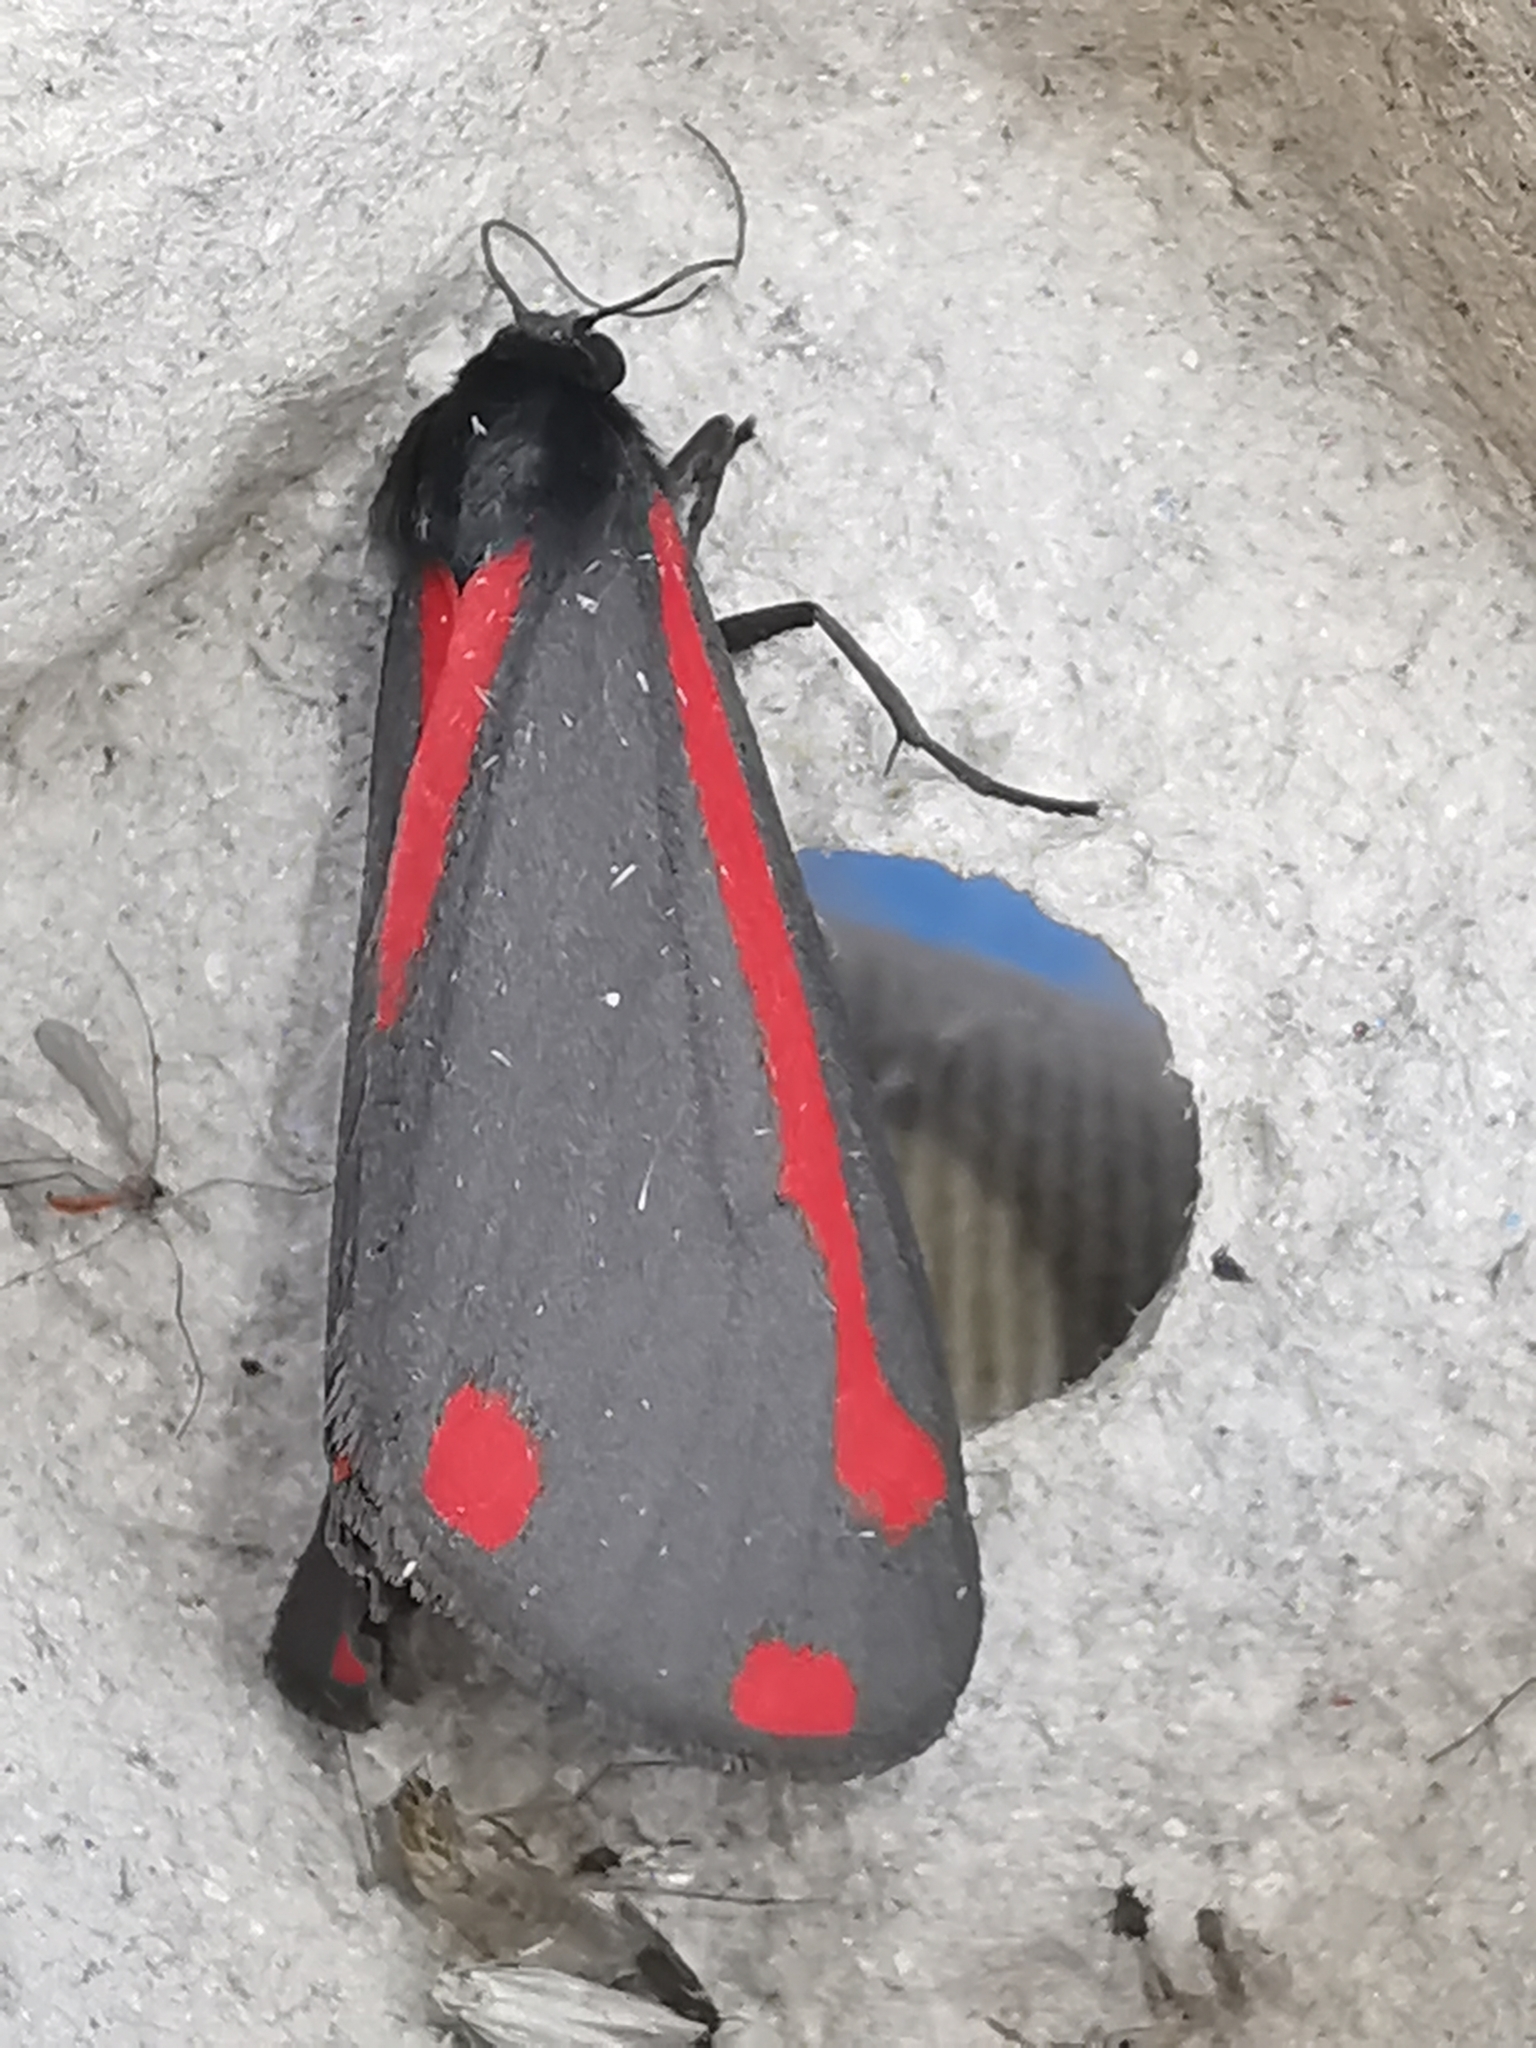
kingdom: Animalia
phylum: Arthropoda
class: Insecta
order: Lepidoptera
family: Erebidae
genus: Tyria
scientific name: Tyria jacobaeae
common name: Cinnabar
